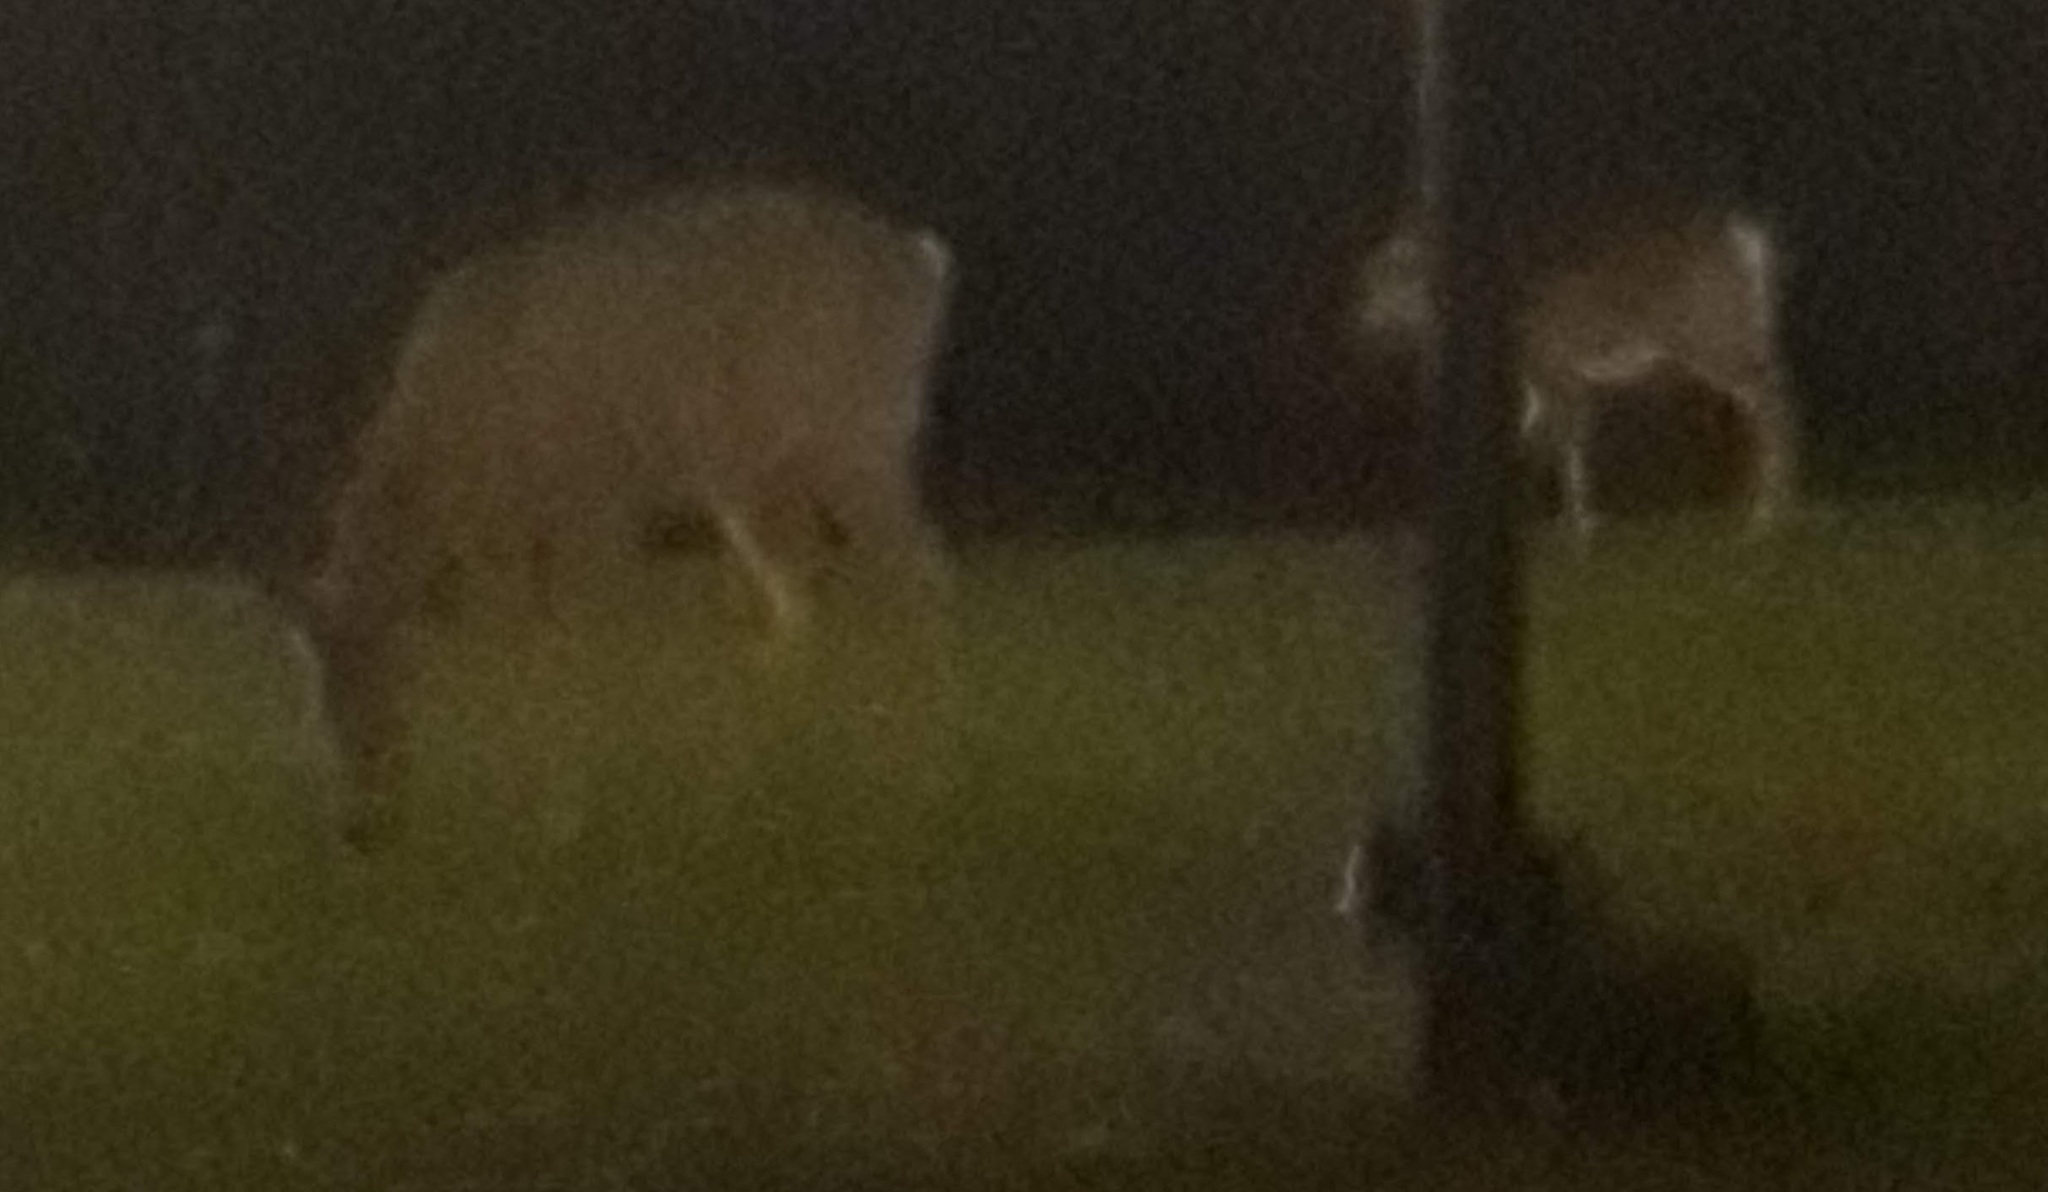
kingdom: Animalia
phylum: Chordata
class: Mammalia
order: Artiodactyla
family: Cervidae
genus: Odocoileus
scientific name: Odocoileus virginianus
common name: White-tailed deer
